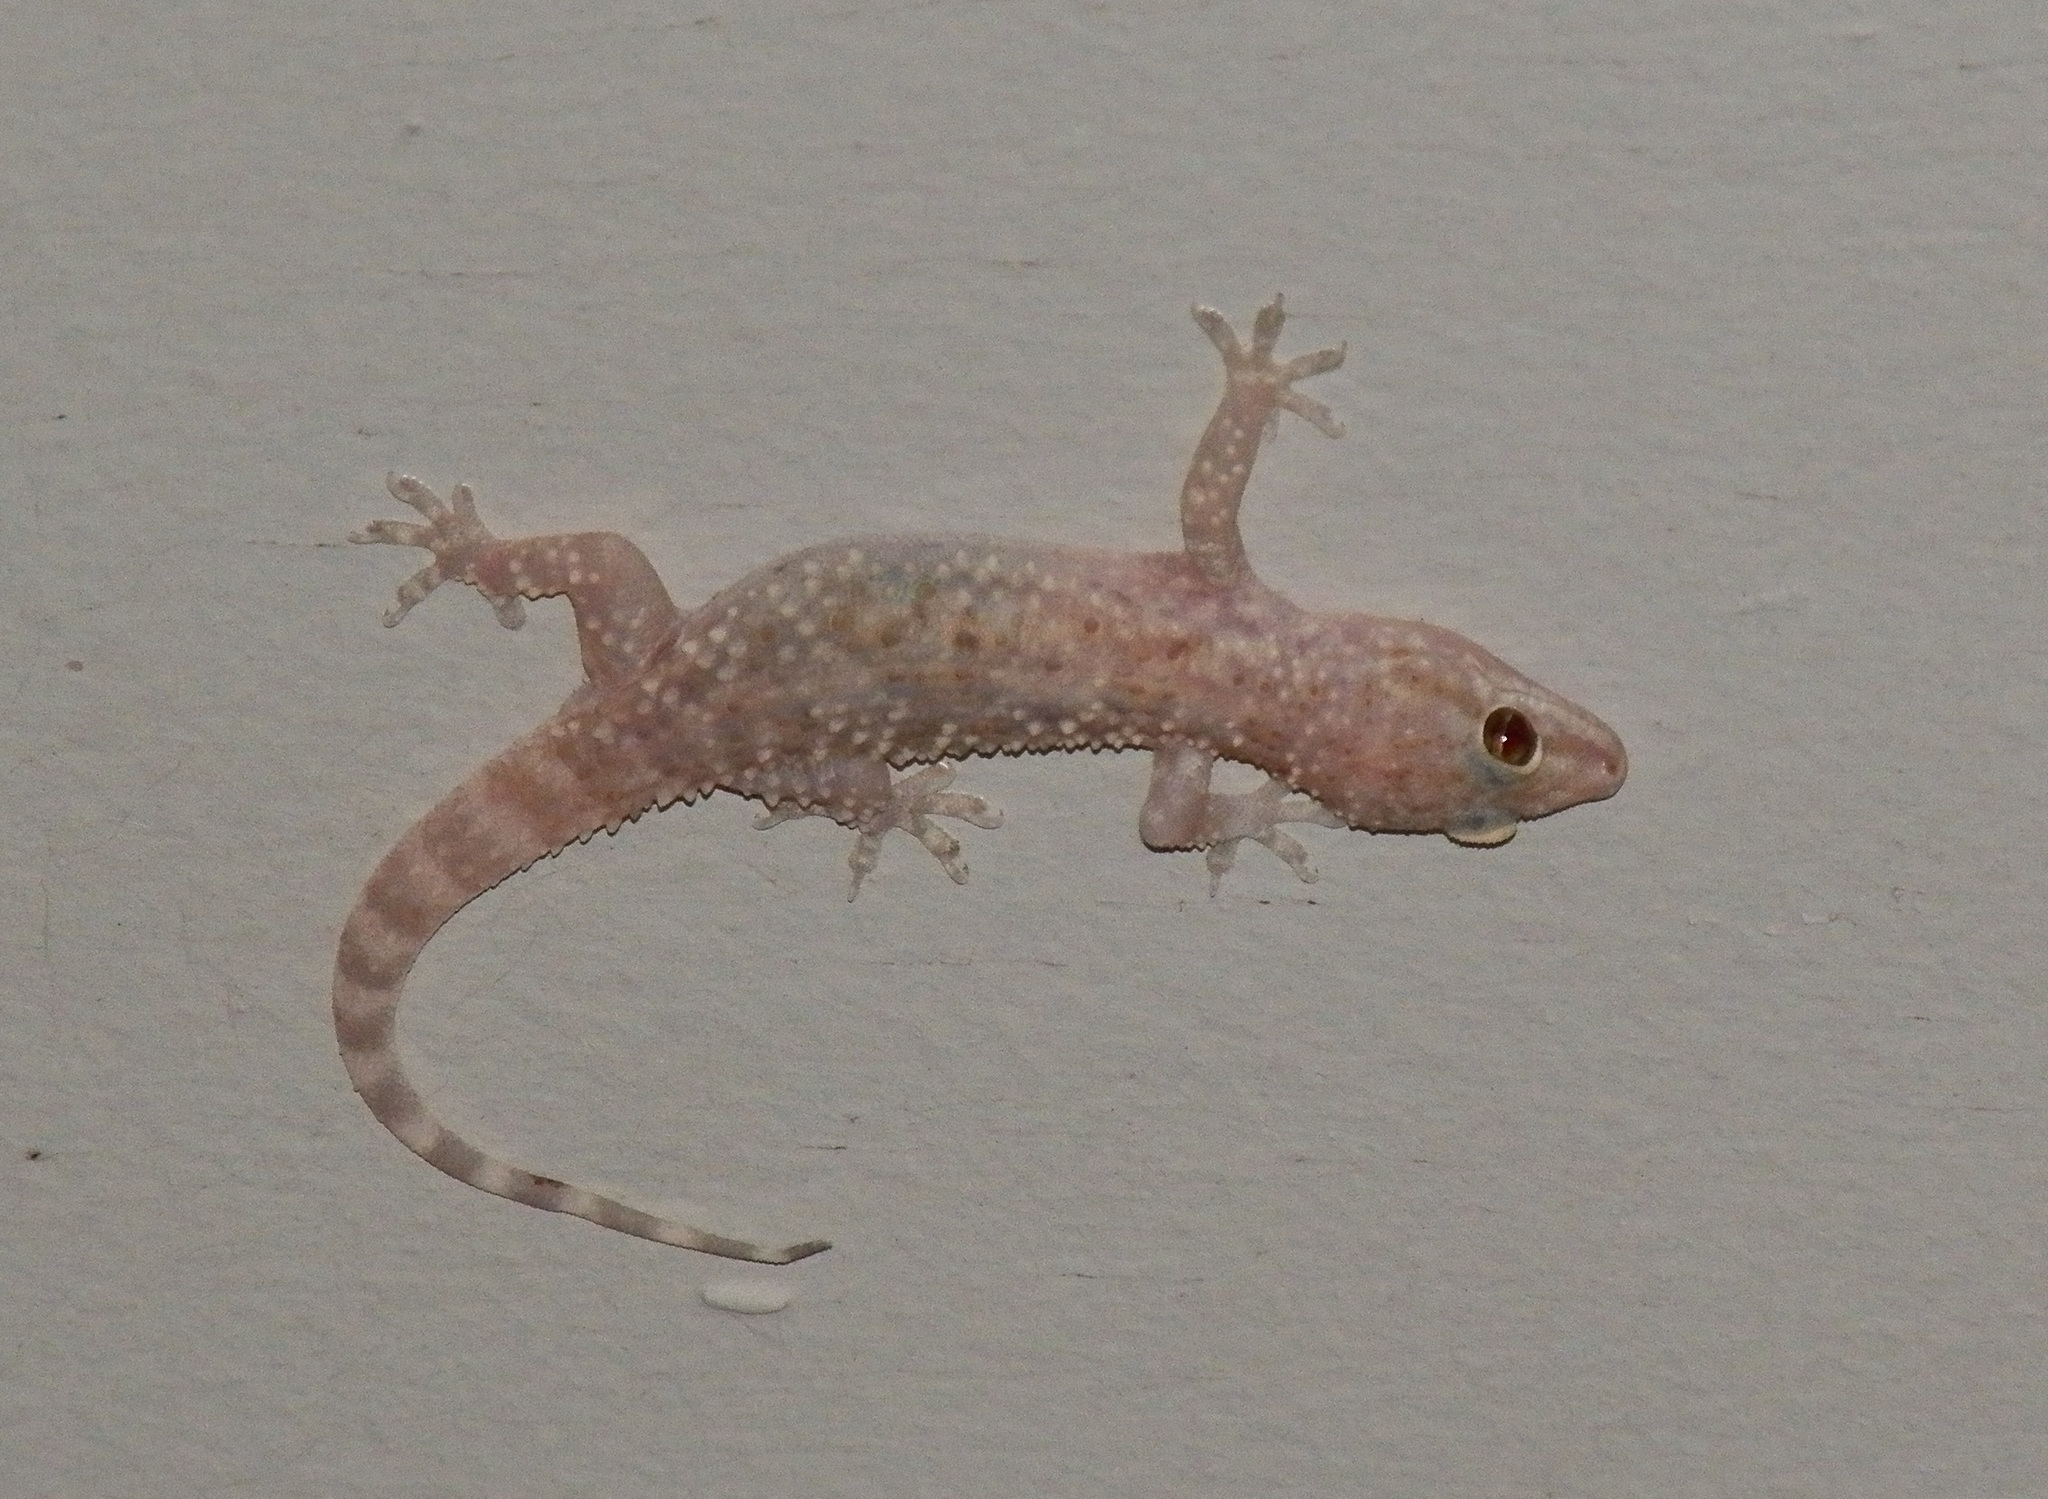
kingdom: Animalia
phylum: Chordata
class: Squamata
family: Gekkonidae
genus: Hemidactylus
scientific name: Hemidactylus turcicus
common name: Turkish gecko
